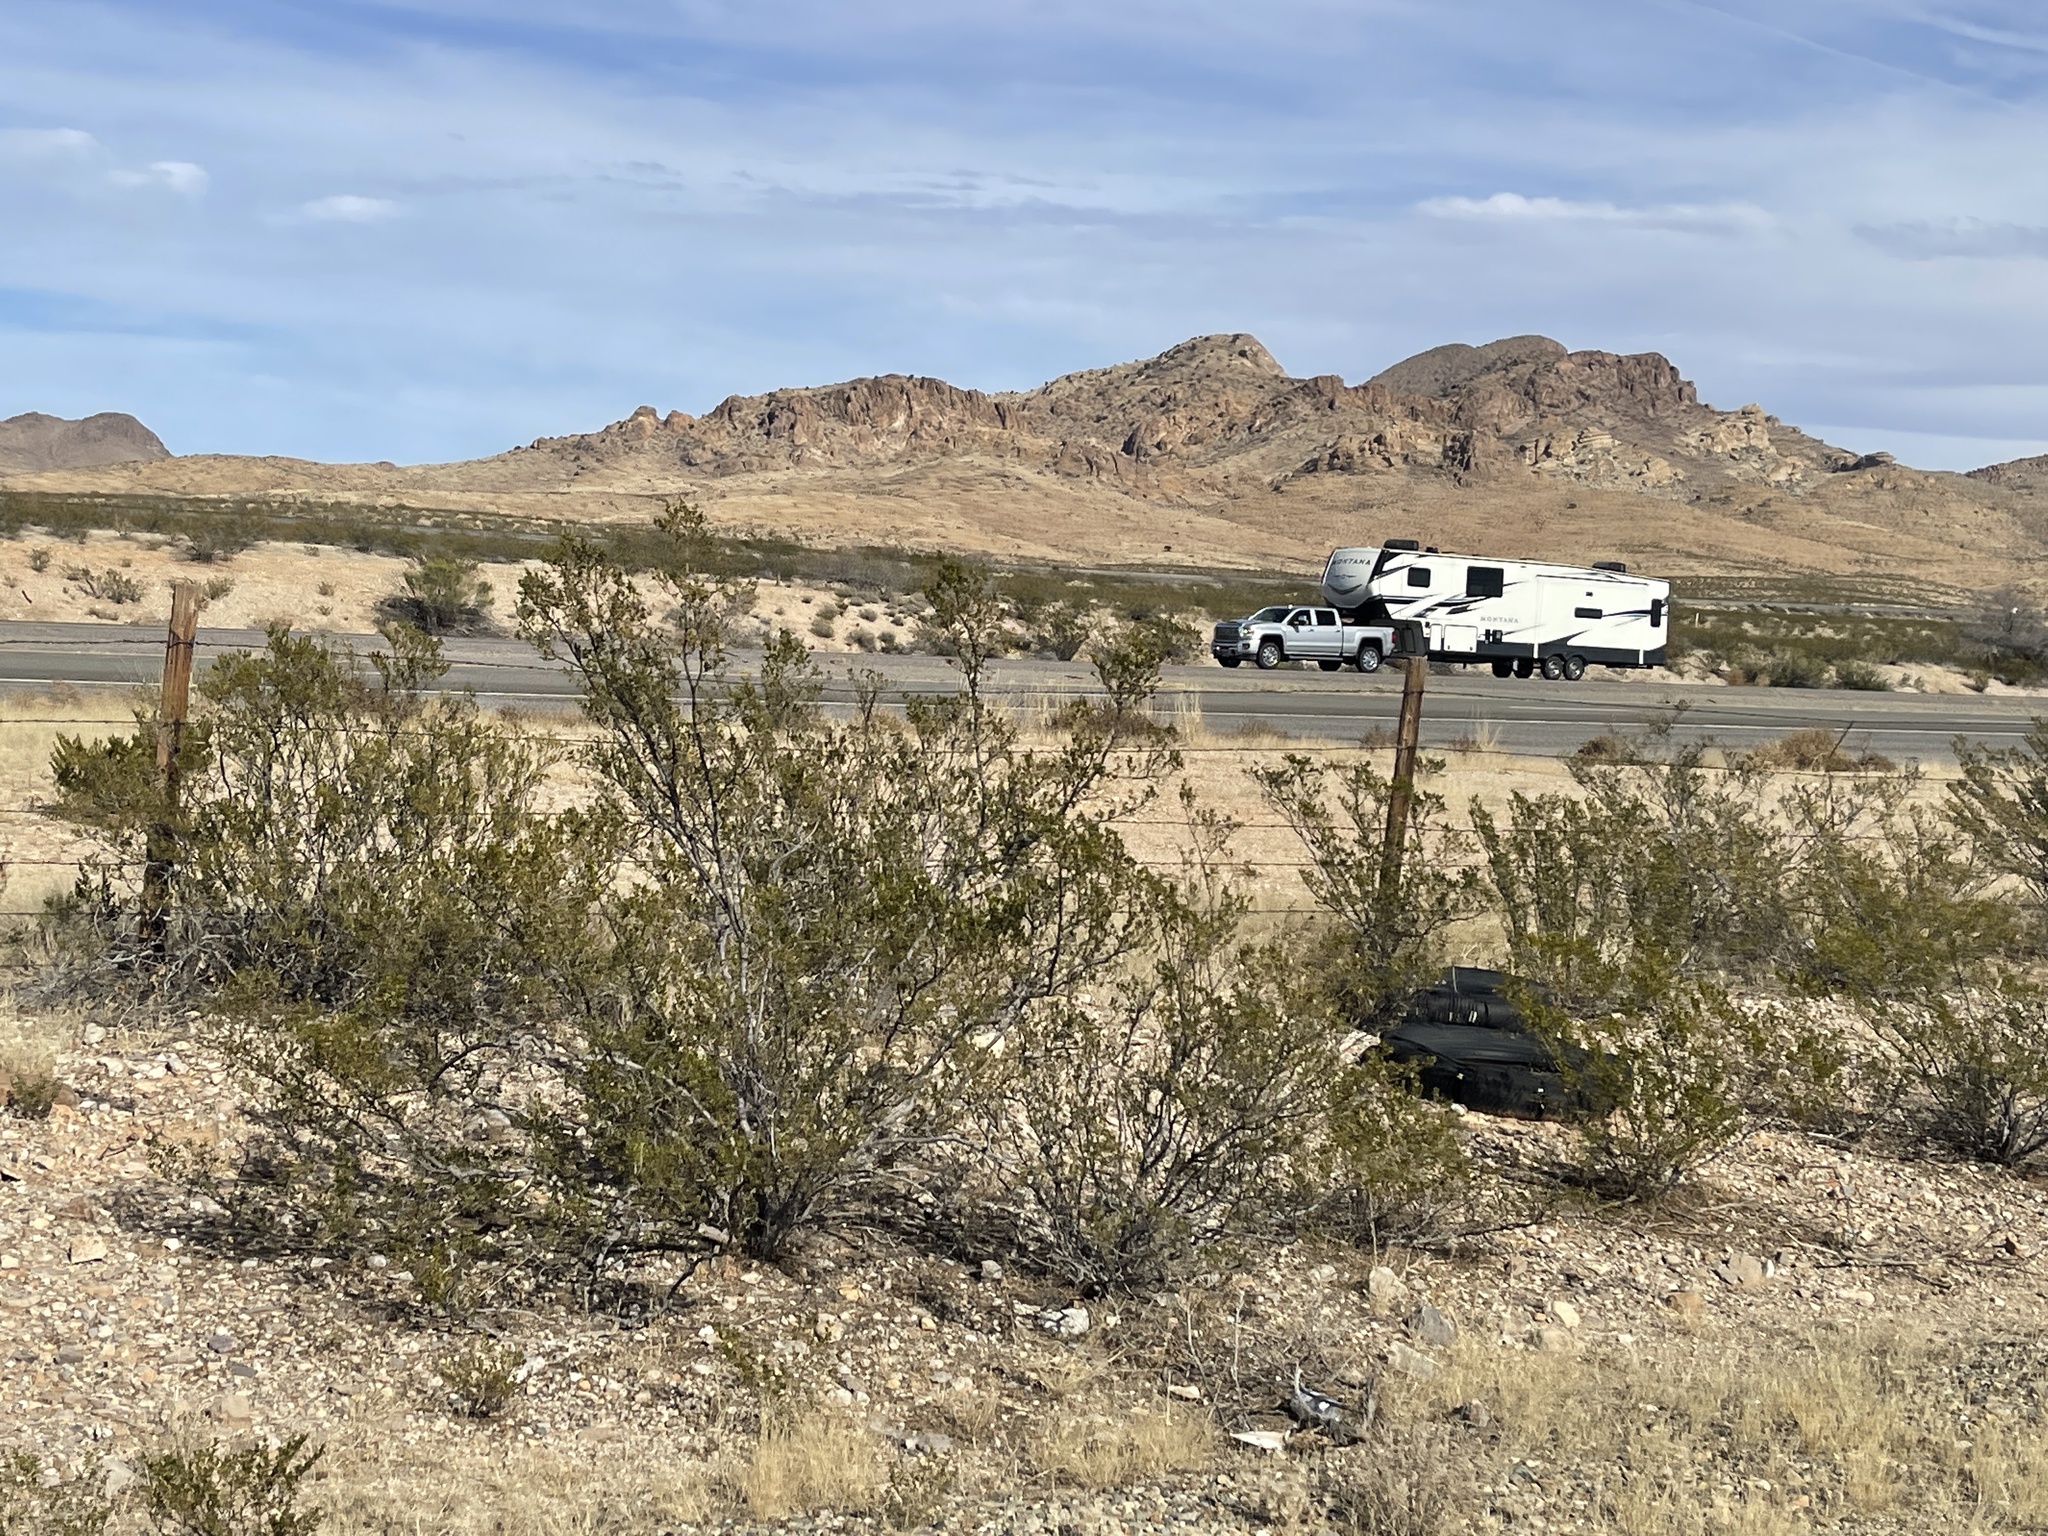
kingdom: Plantae
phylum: Tracheophyta
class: Magnoliopsida
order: Zygophyllales
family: Zygophyllaceae
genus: Larrea
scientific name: Larrea tridentata
